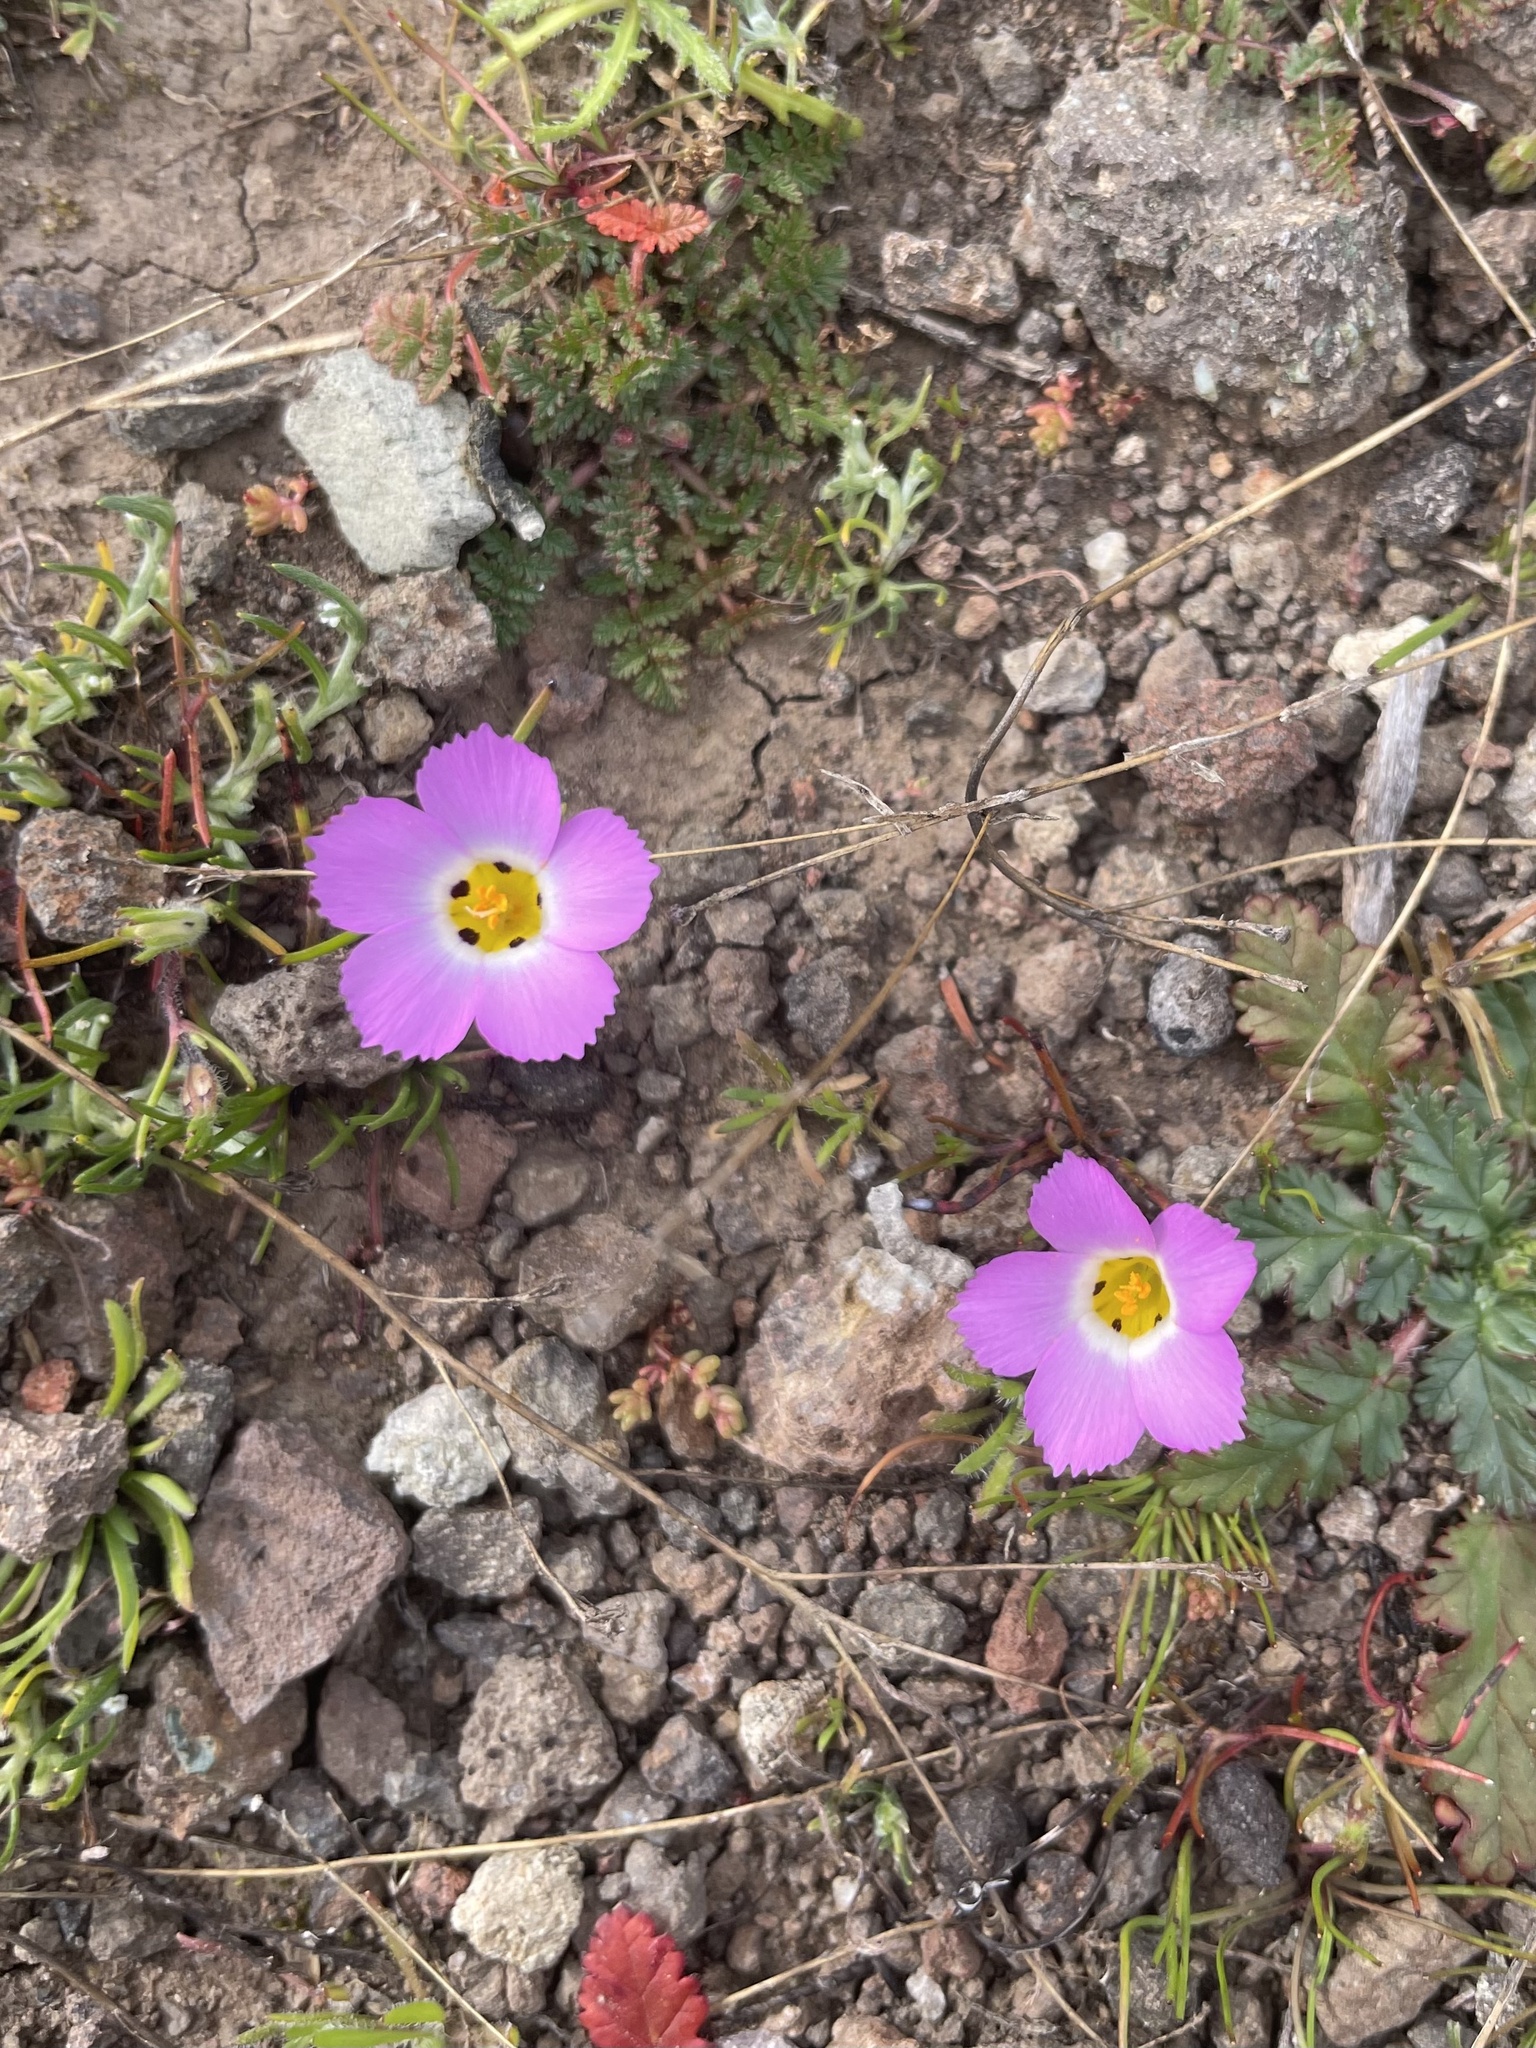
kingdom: Plantae
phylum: Tracheophyta
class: Magnoliopsida
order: Ericales
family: Polemoniaceae
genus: Linanthus
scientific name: Linanthus dianthiflorus
